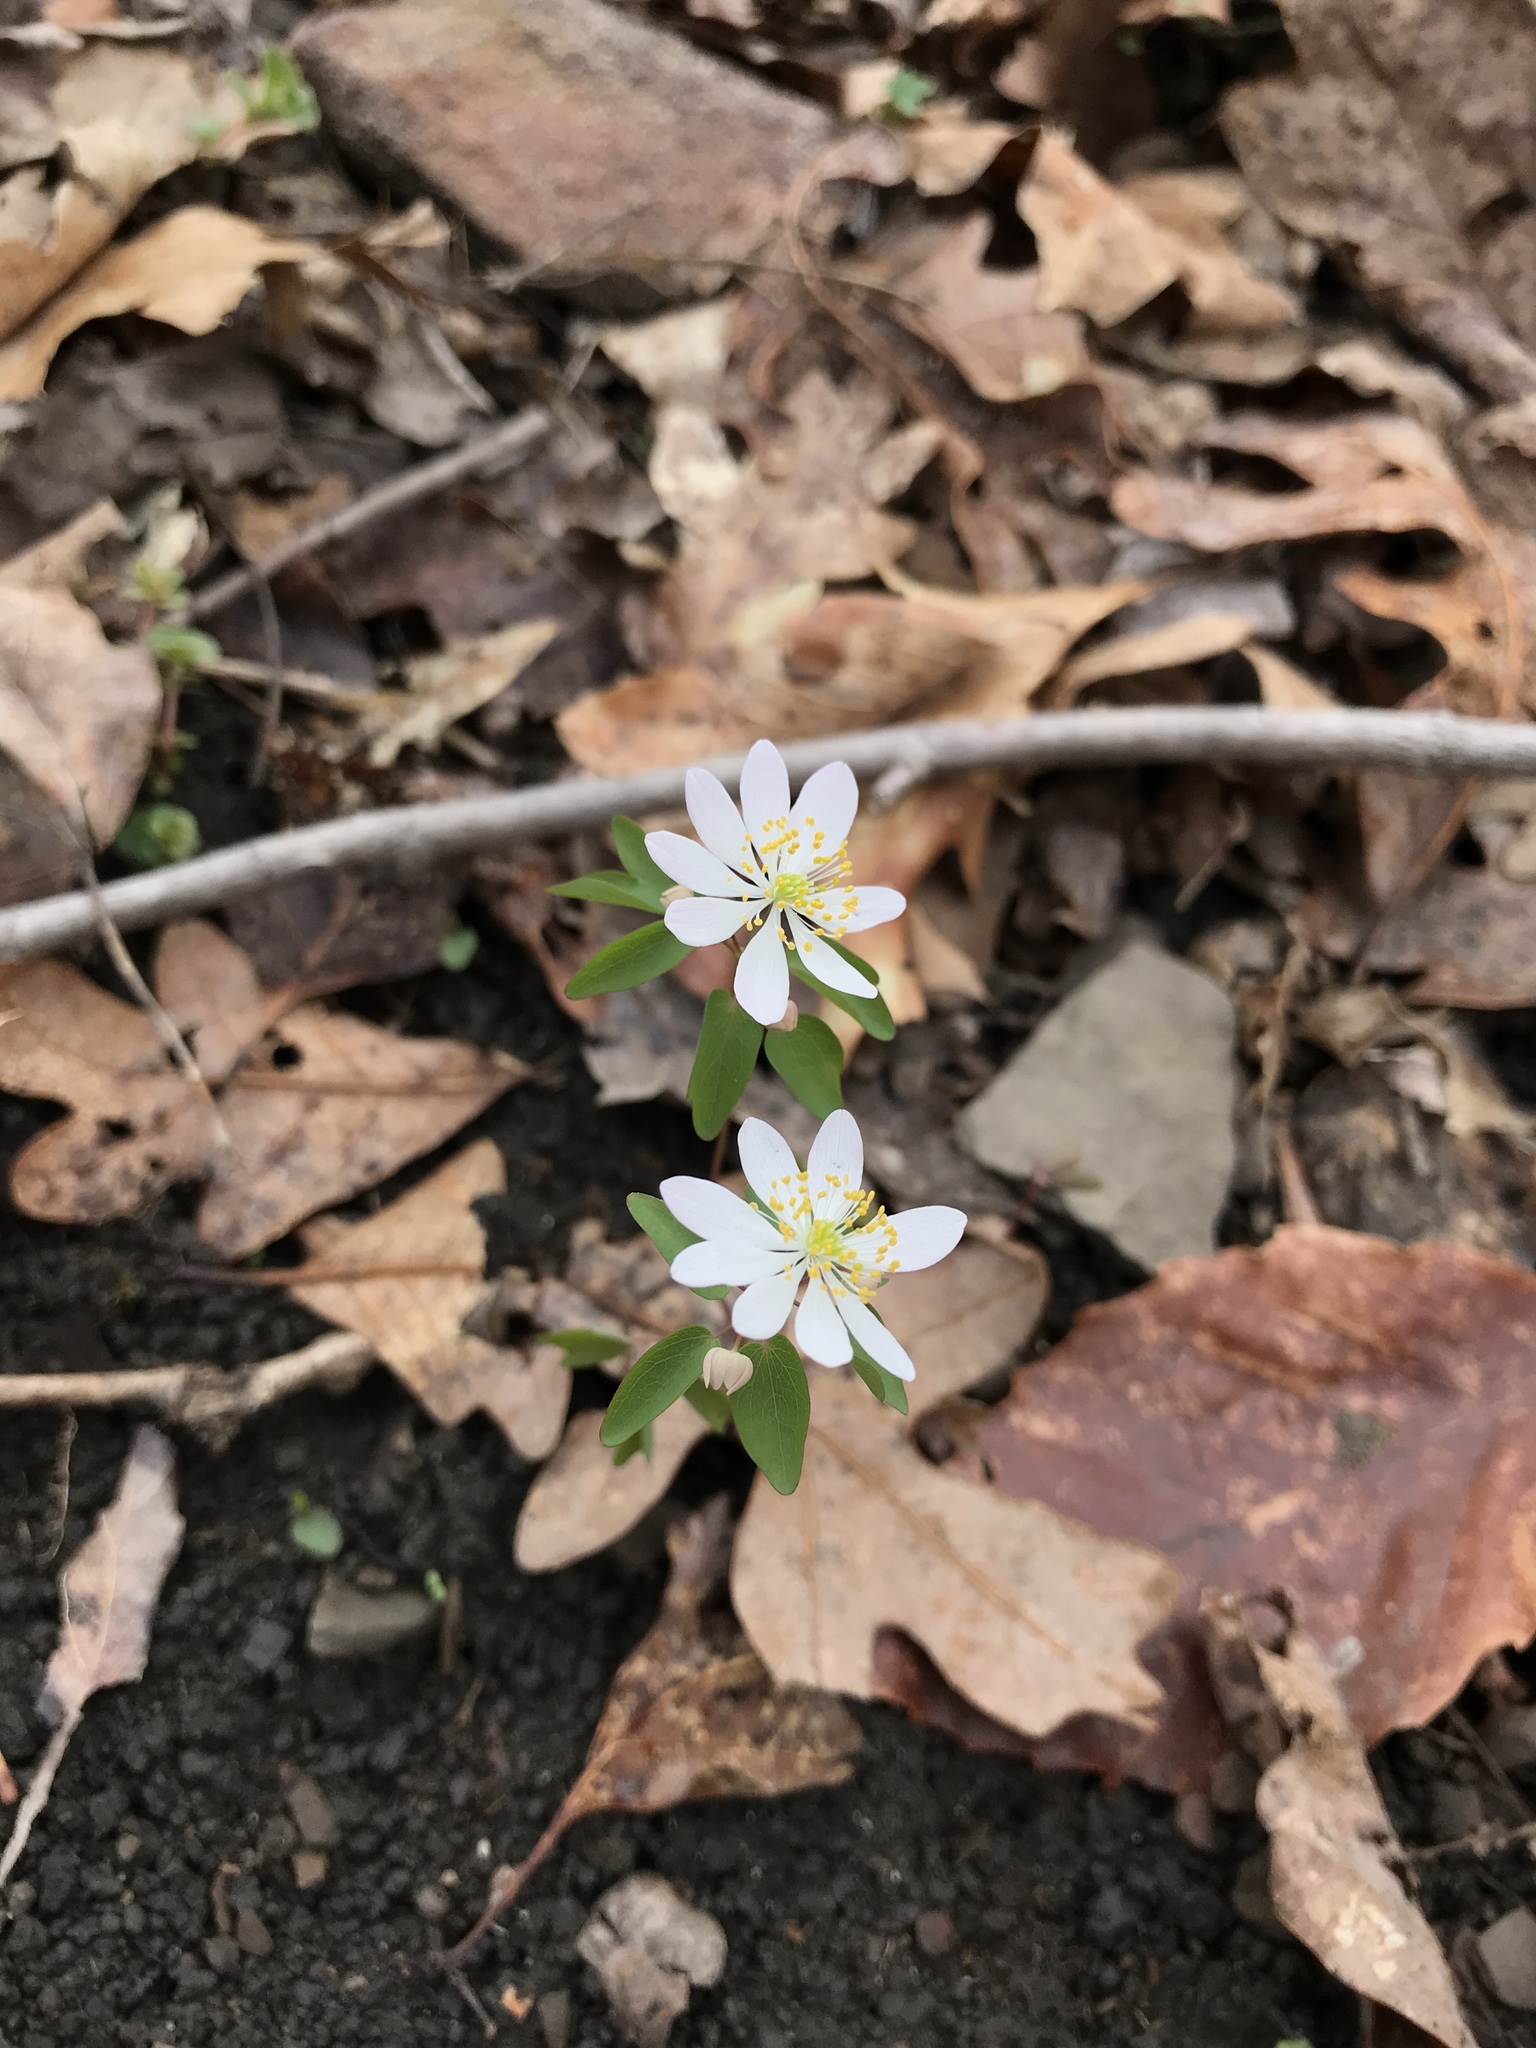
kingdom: Plantae
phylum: Tracheophyta
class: Magnoliopsida
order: Ranunculales
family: Ranunculaceae
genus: Thalictrum
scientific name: Thalictrum thalictroides
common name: Rue-anemone
